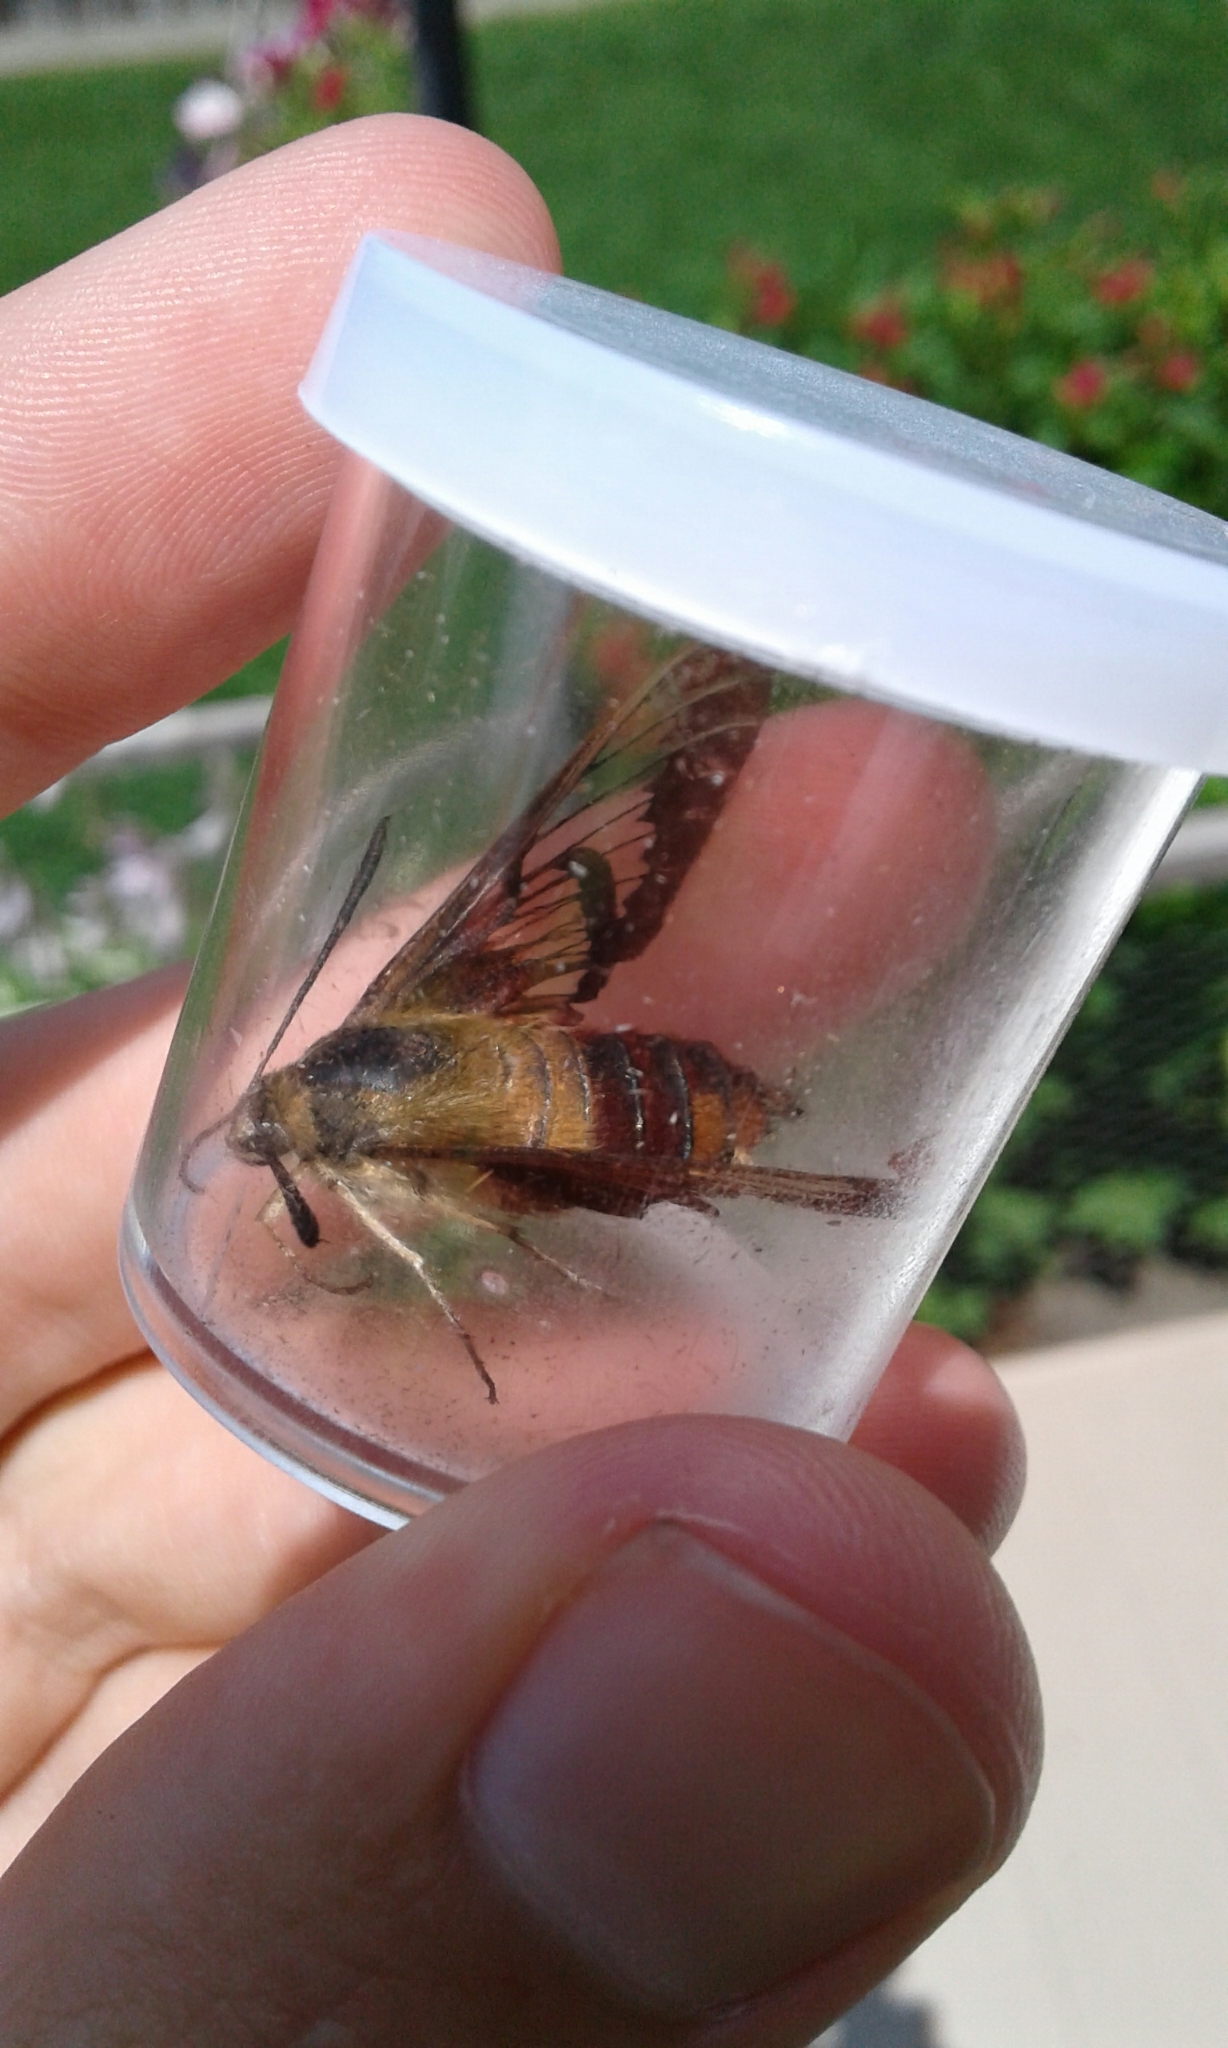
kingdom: Animalia
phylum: Arthropoda
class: Insecta
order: Lepidoptera
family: Sphingidae
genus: Hemaris
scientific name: Hemaris thysbe
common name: Common clear-wing
